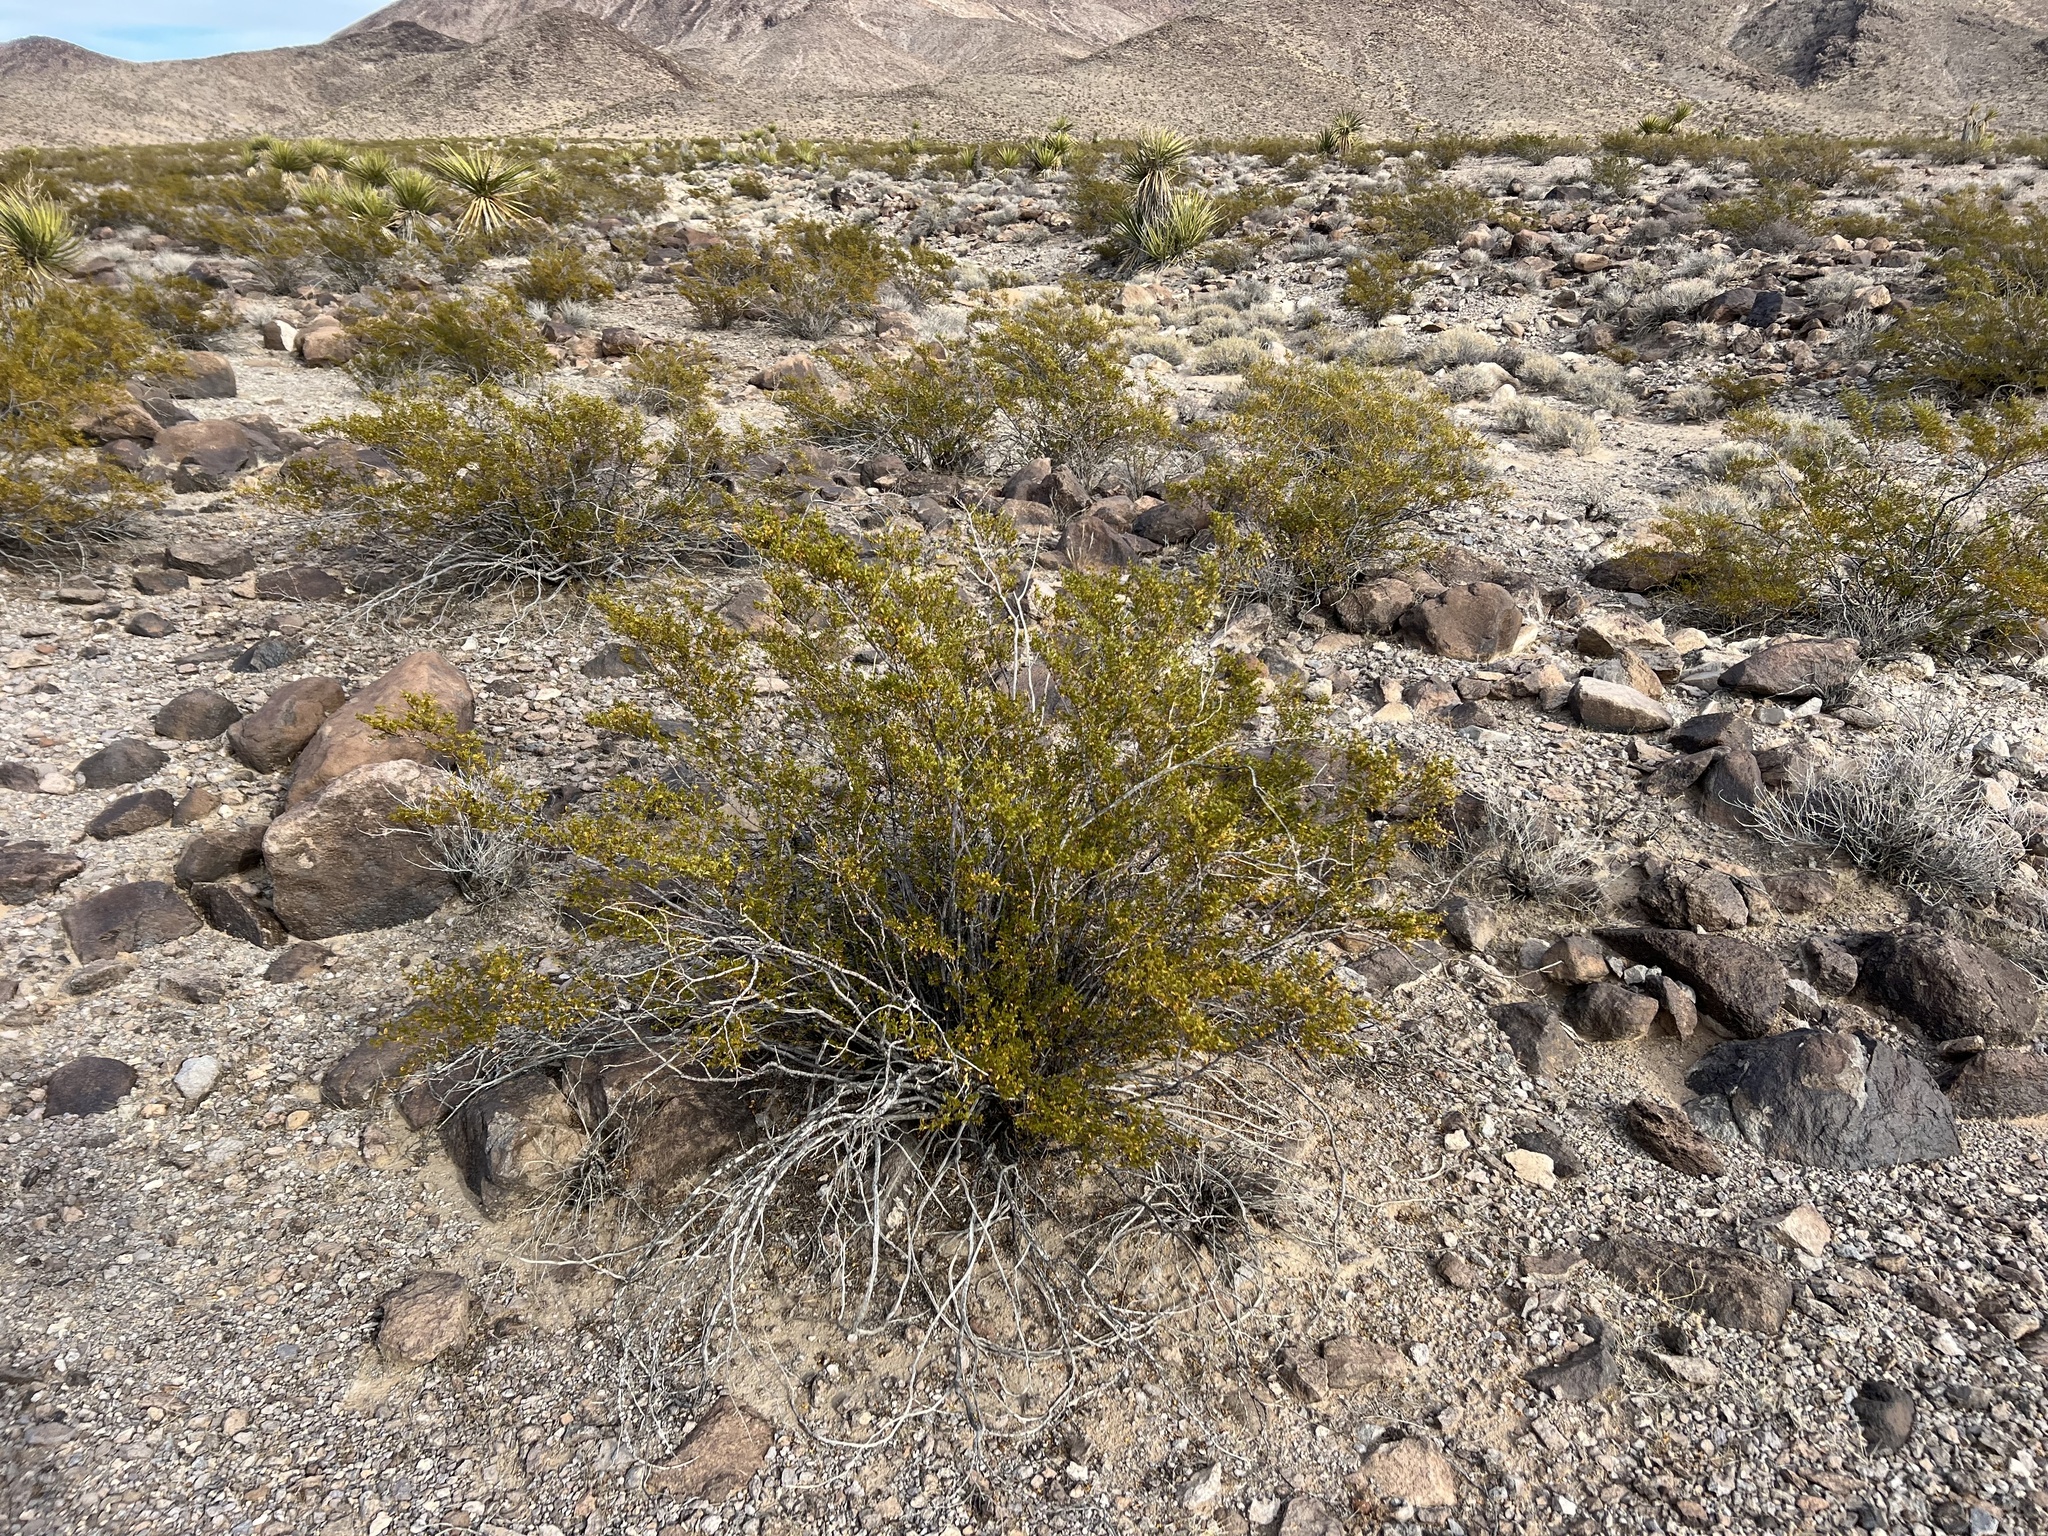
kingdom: Plantae
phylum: Tracheophyta
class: Magnoliopsida
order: Zygophyllales
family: Zygophyllaceae
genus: Larrea
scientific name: Larrea tridentata
